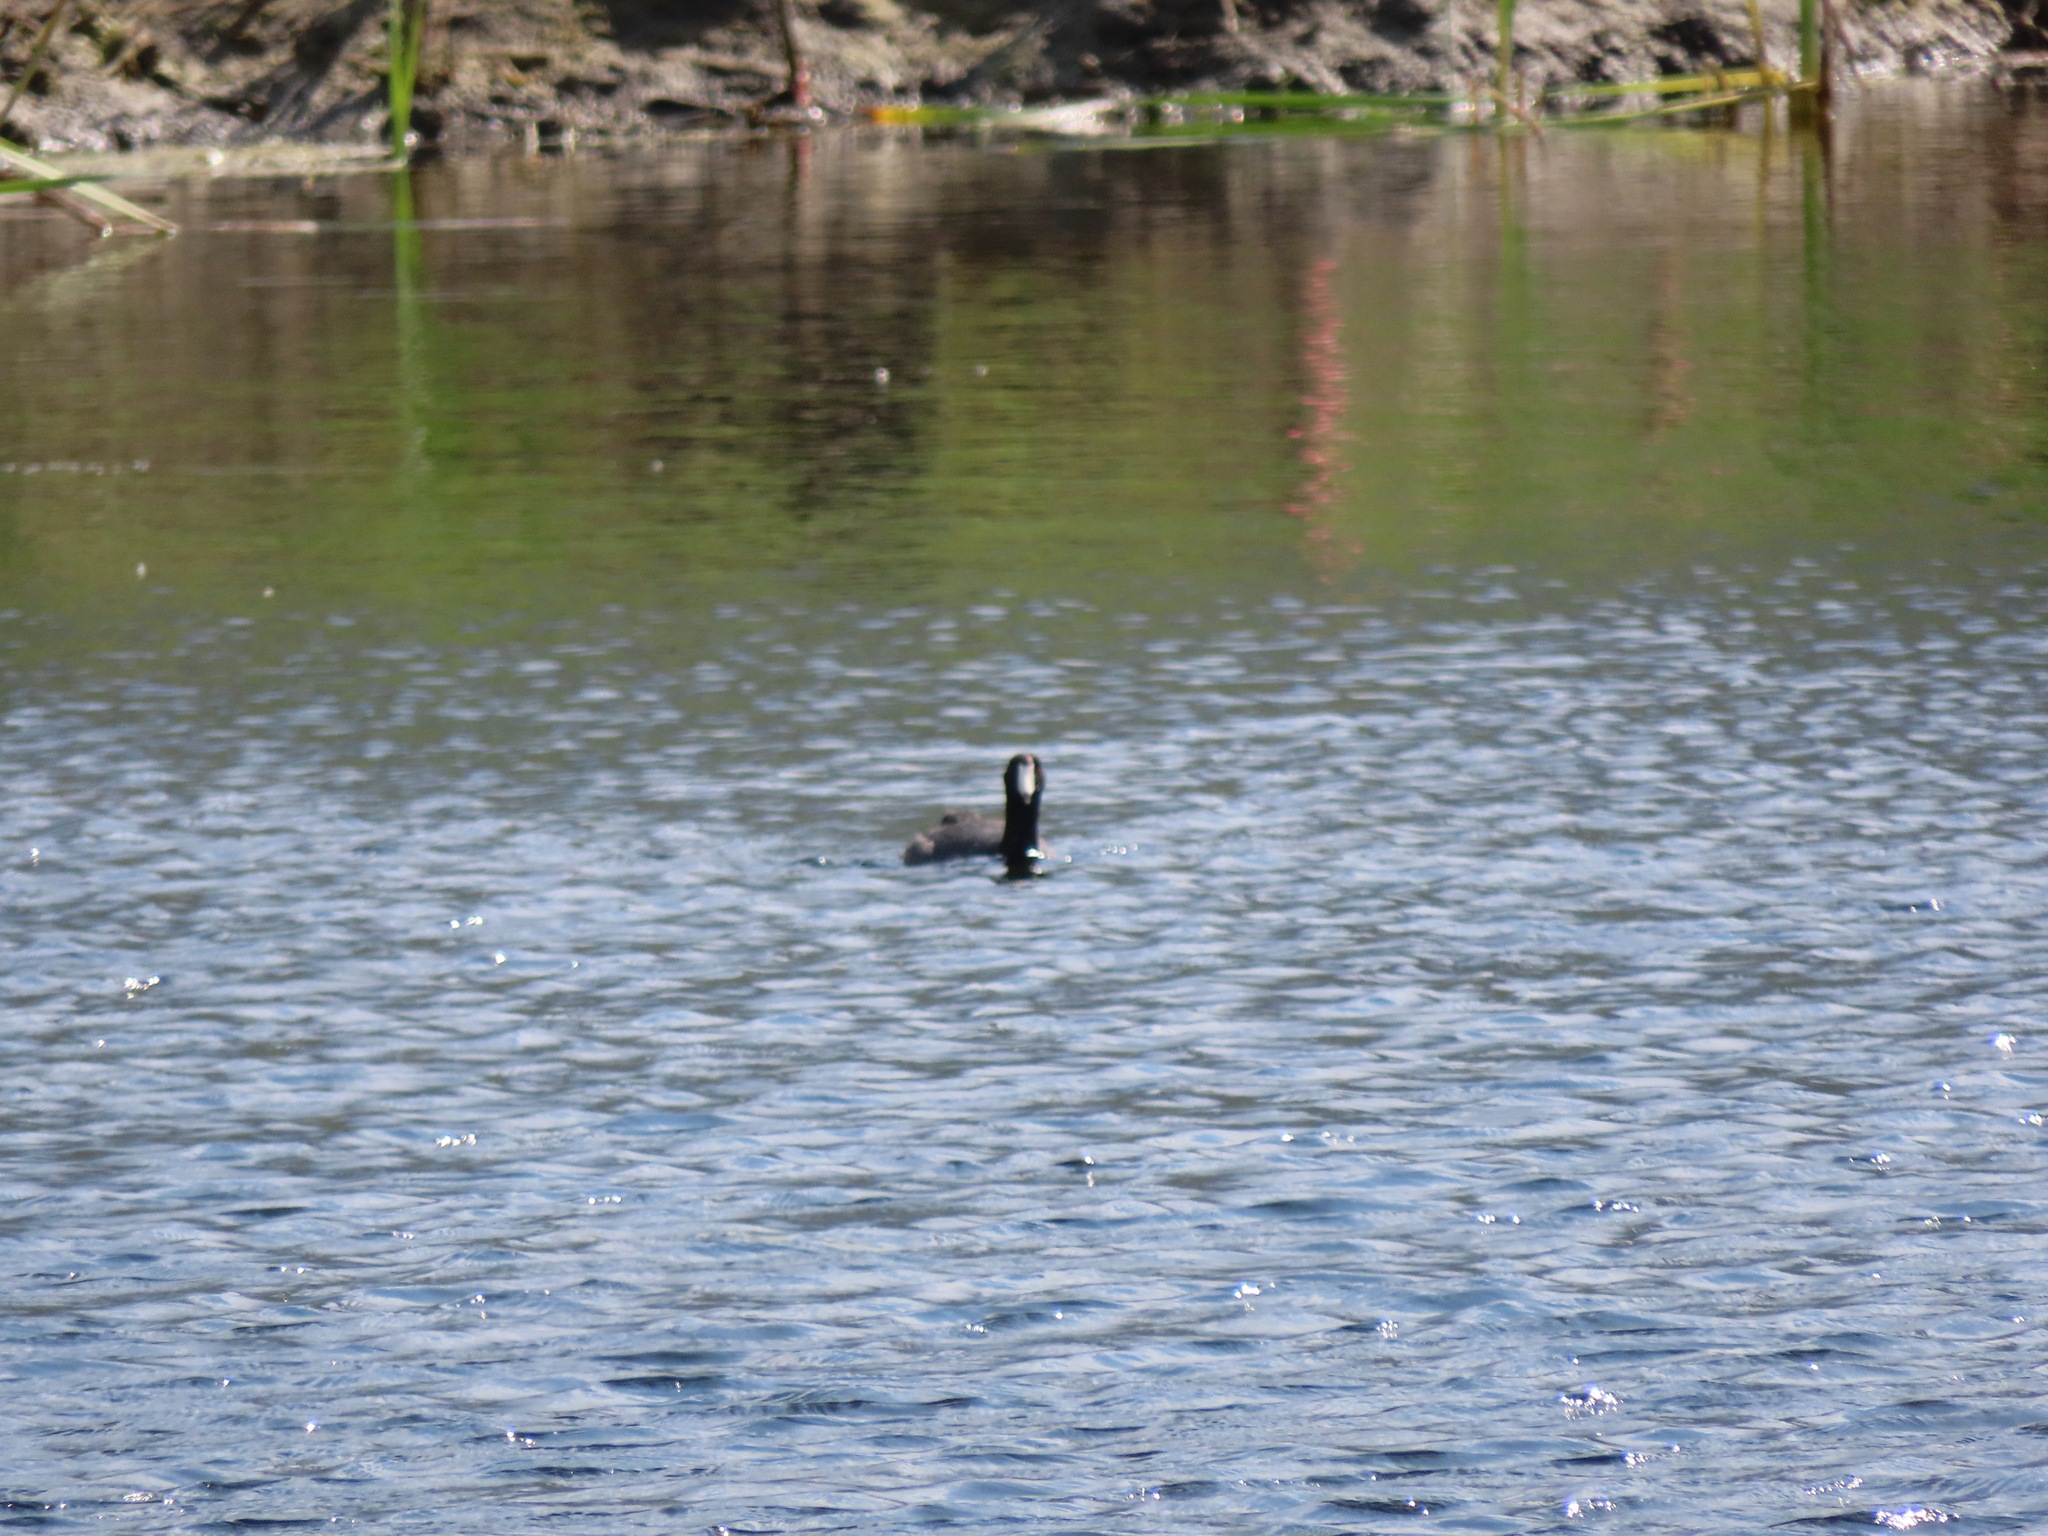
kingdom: Animalia
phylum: Chordata
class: Aves
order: Gruiformes
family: Rallidae
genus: Fulica
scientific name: Fulica americana
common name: American coot
